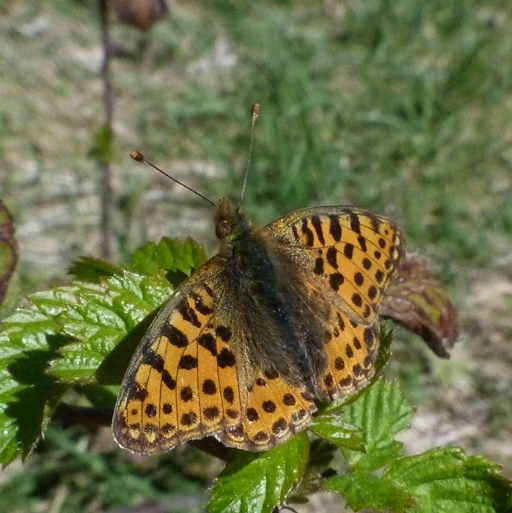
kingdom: Animalia
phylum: Arthropoda
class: Insecta
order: Lepidoptera
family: Nymphalidae
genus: Issoria
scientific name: Issoria lathonia
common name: Queen of spain fritillary
